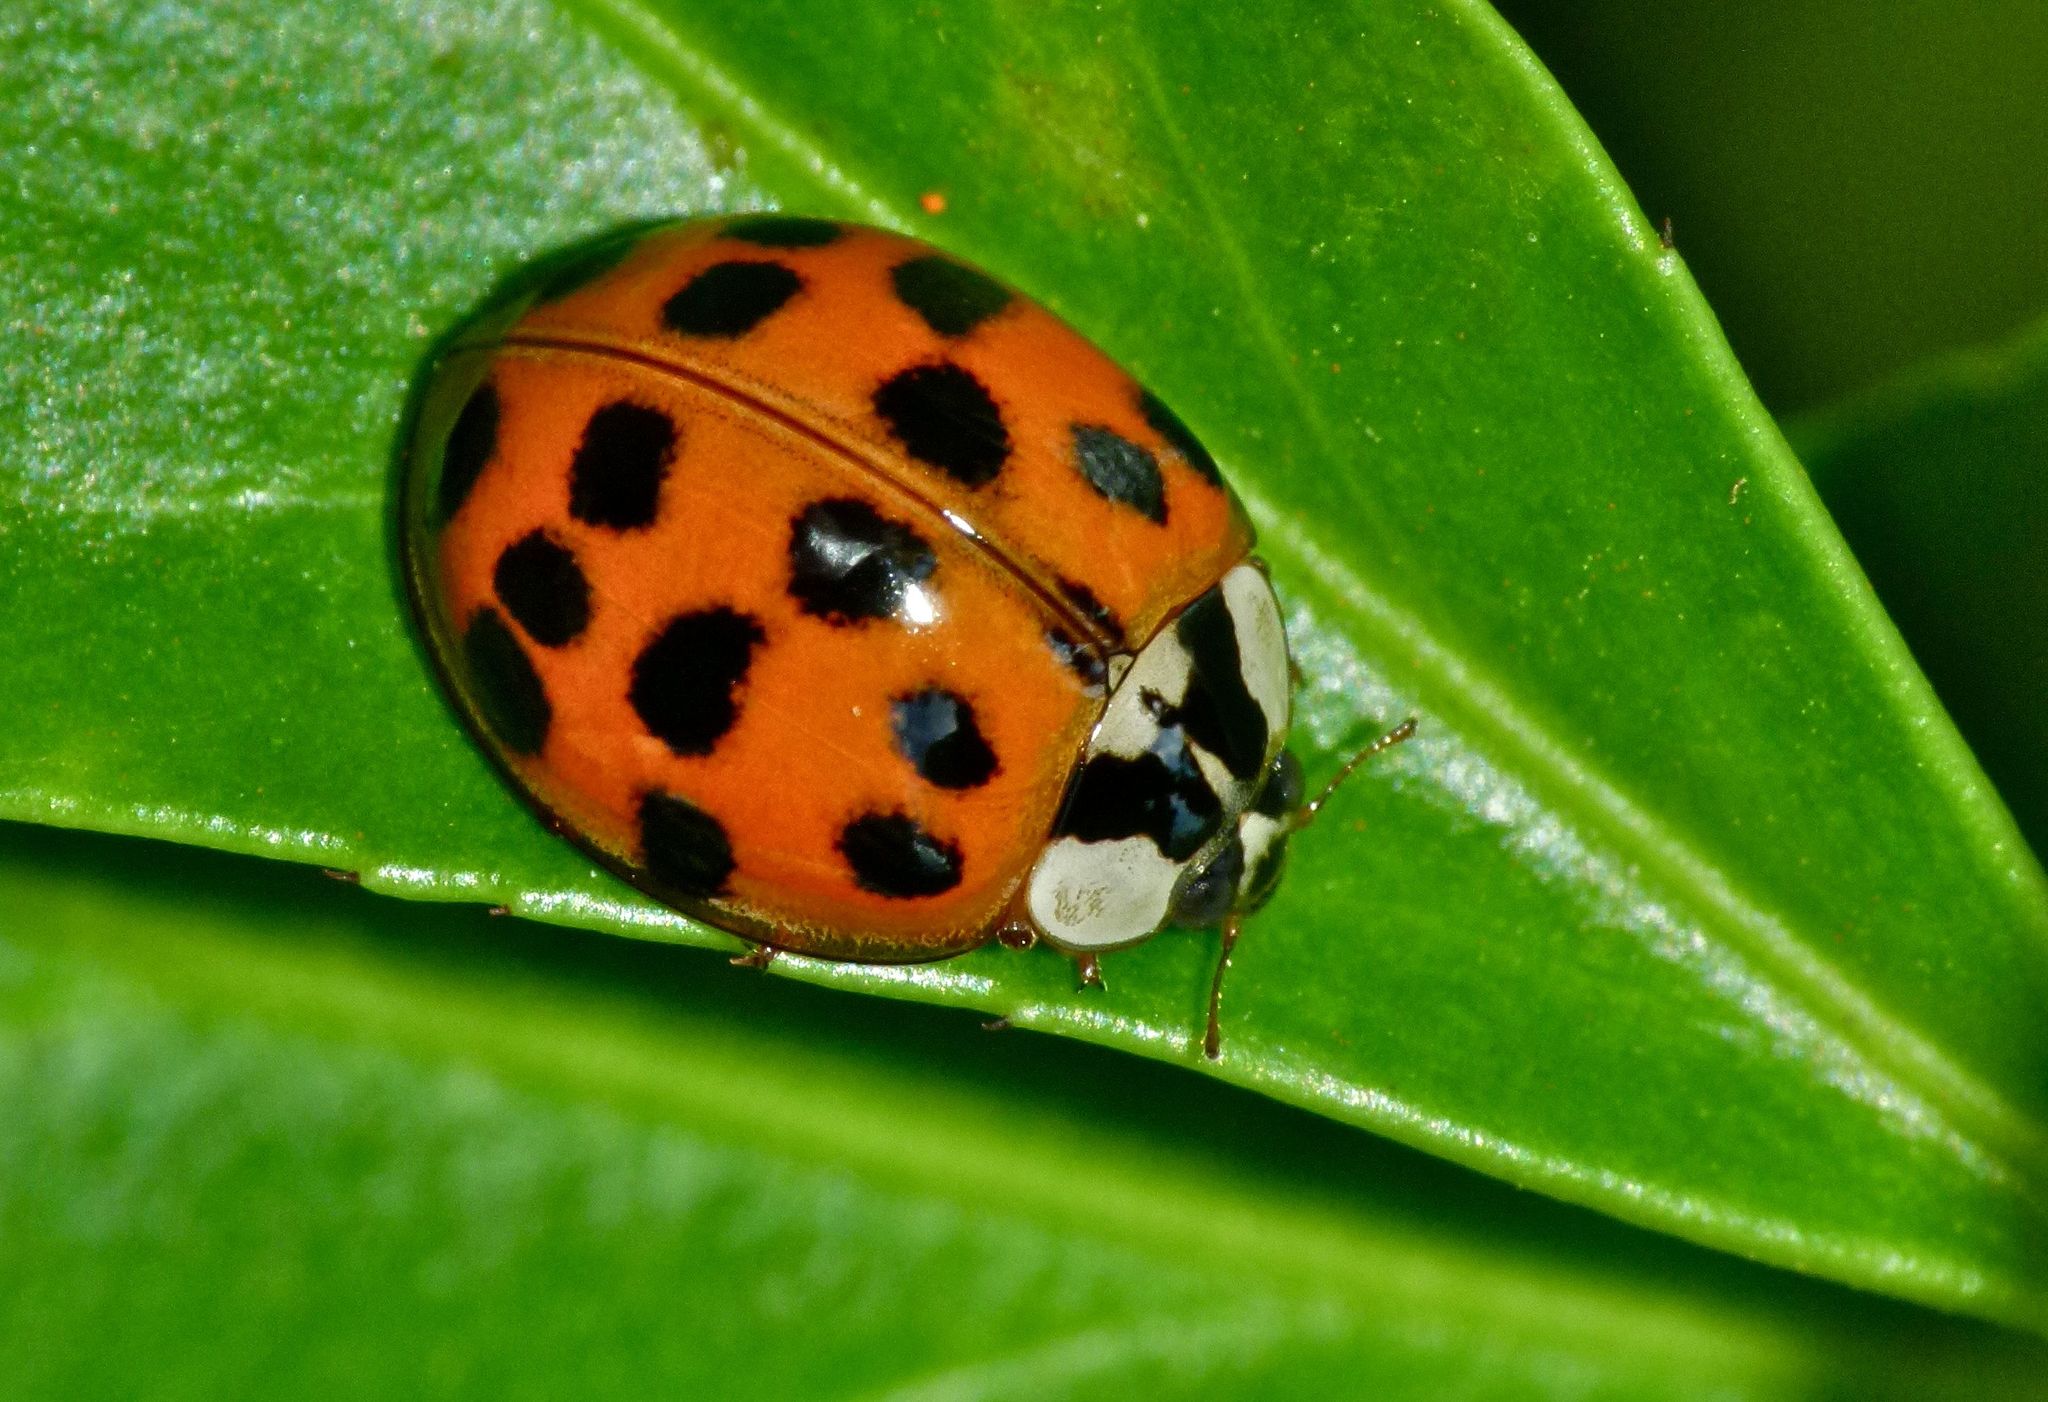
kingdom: Animalia
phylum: Arthropoda
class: Insecta
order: Coleoptera
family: Coccinellidae
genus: Harmonia
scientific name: Harmonia axyridis
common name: Harlequin ladybird
